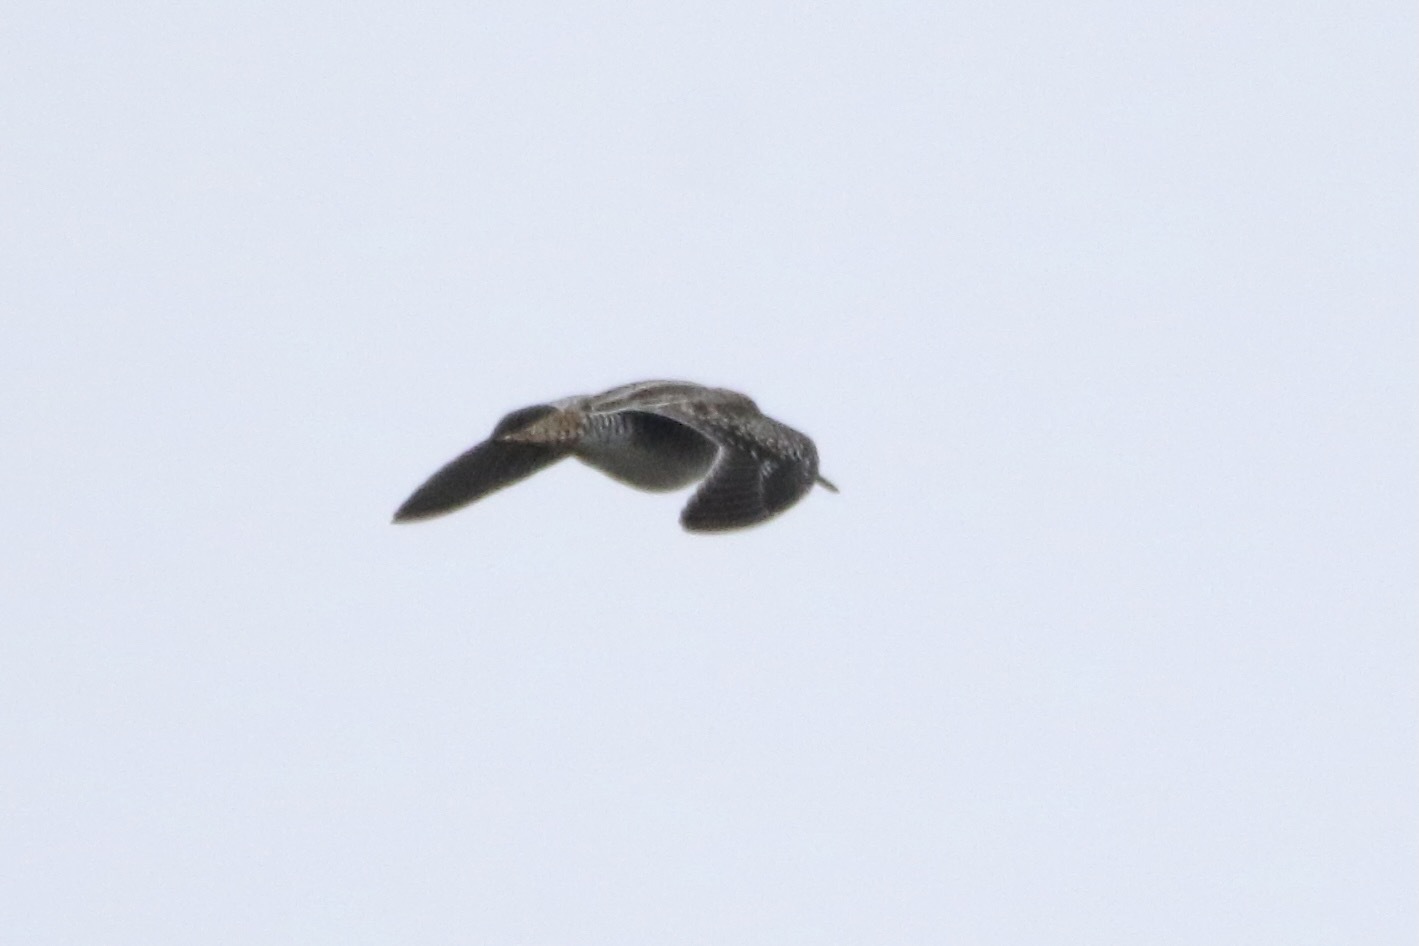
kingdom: Animalia
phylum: Chordata
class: Aves
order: Charadriiformes
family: Scolopacidae
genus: Gallinago
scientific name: Gallinago delicata
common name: Wilson's snipe
